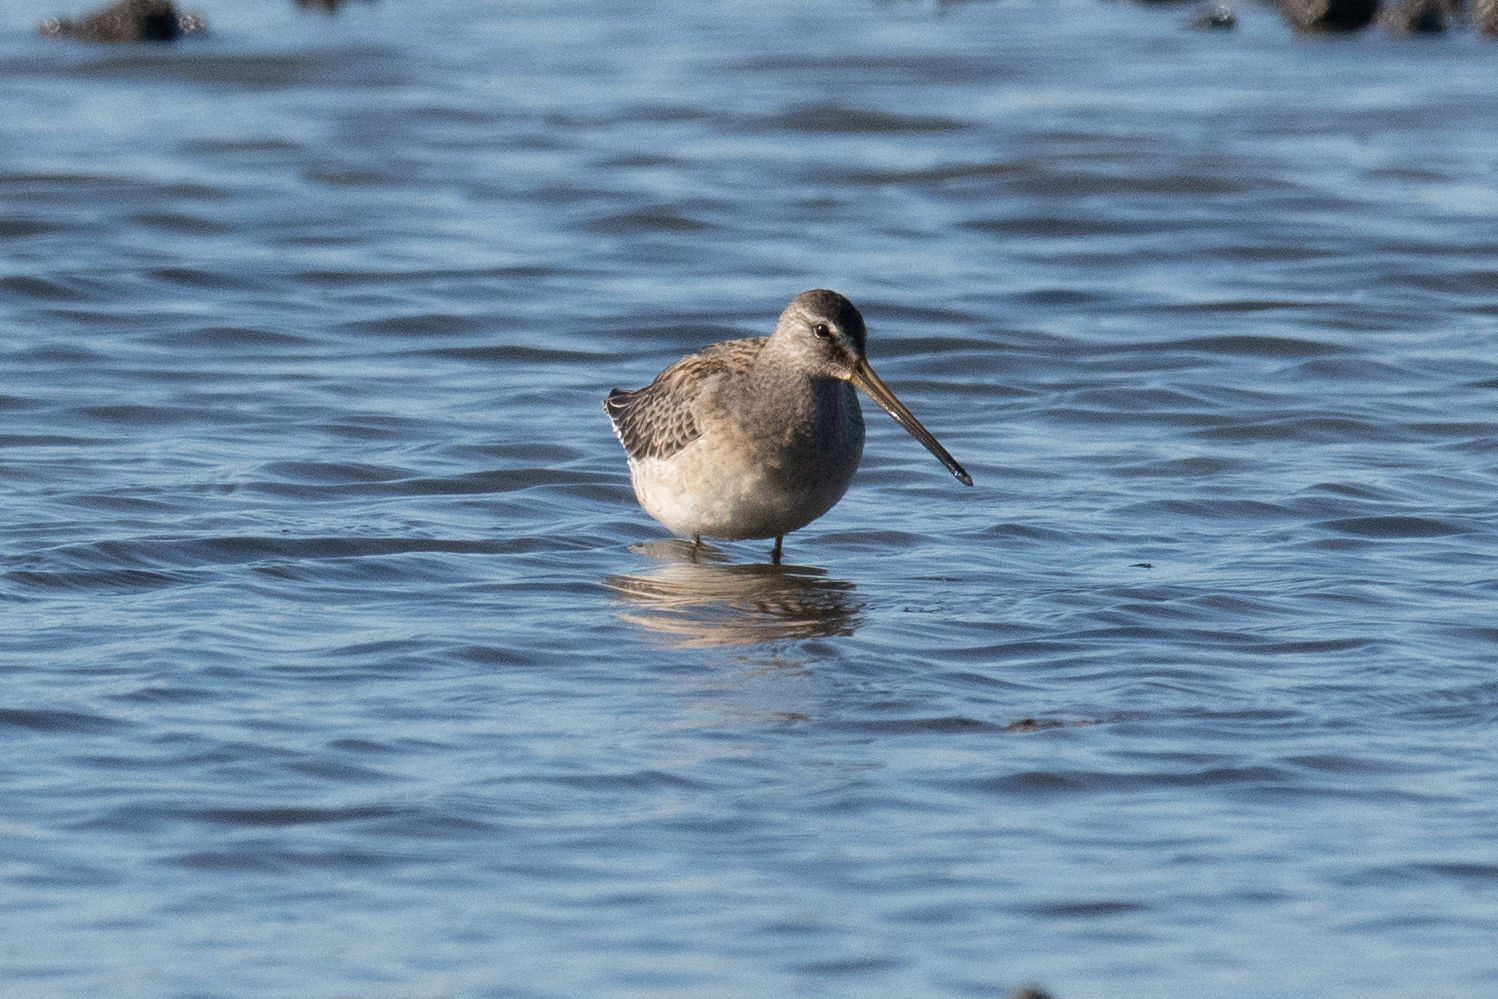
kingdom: Animalia
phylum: Chordata
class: Aves
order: Charadriiformes
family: Scolopacidae
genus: Limnodromus
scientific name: Limnodromus scolopaceus
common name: Long-billed dowitcher
